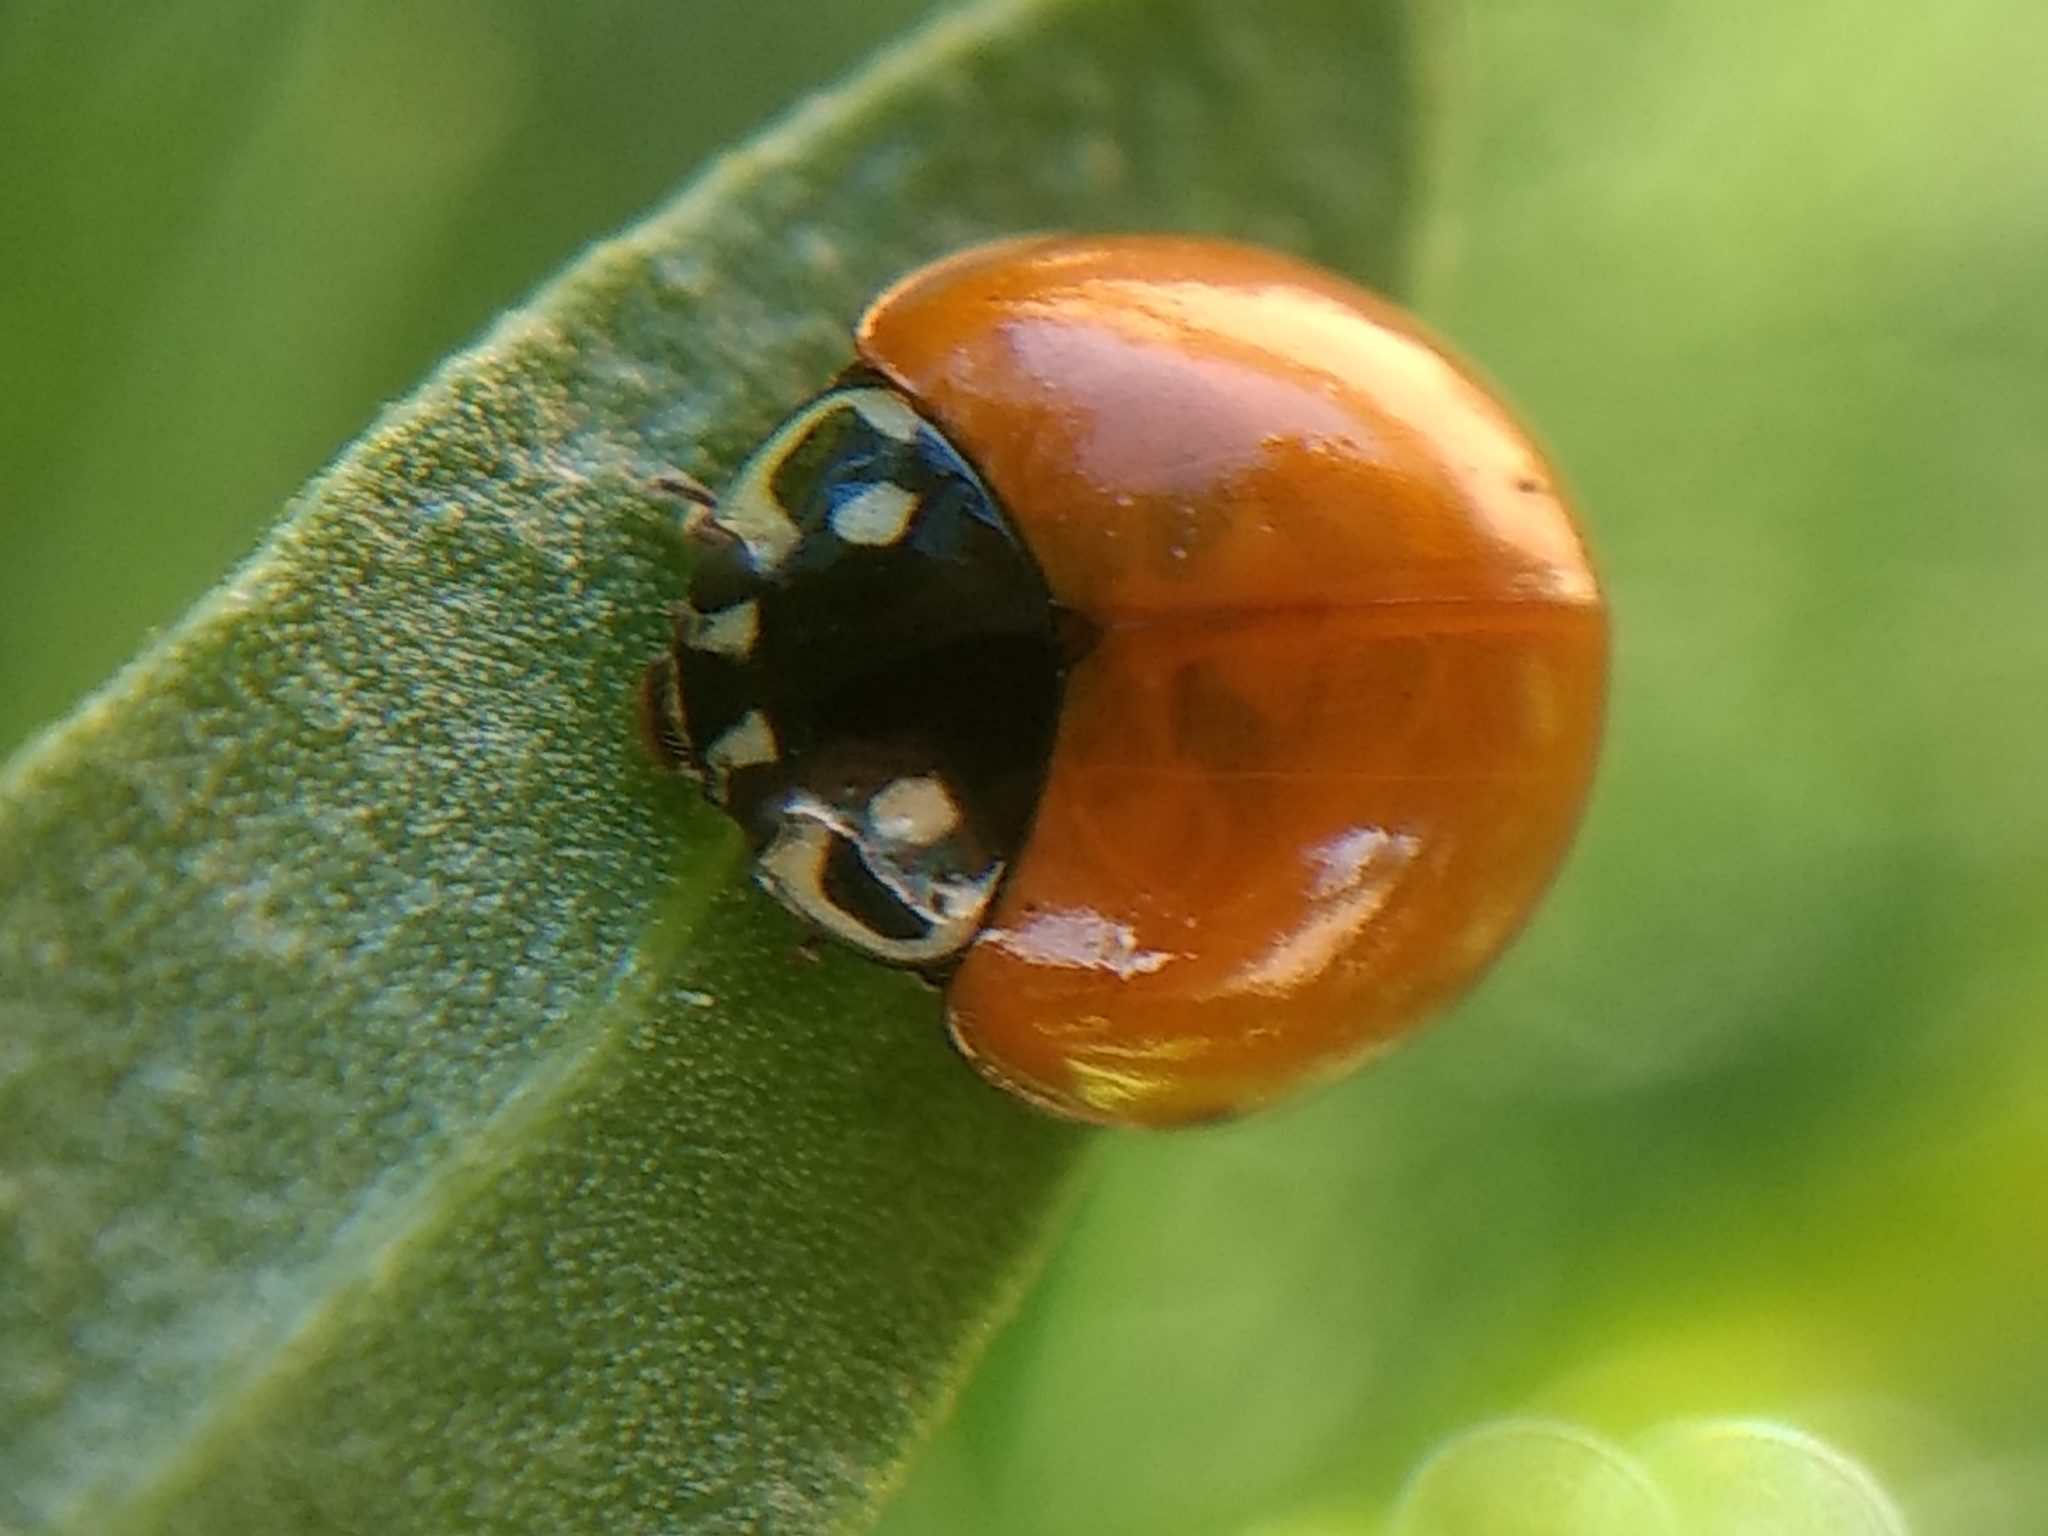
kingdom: Animalia
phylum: Arthropoda
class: Insecta
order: Coleoptera
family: Coccinellidae
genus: Cycloneda
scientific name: Cycloneda sanguinea
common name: Ladybird beetle
